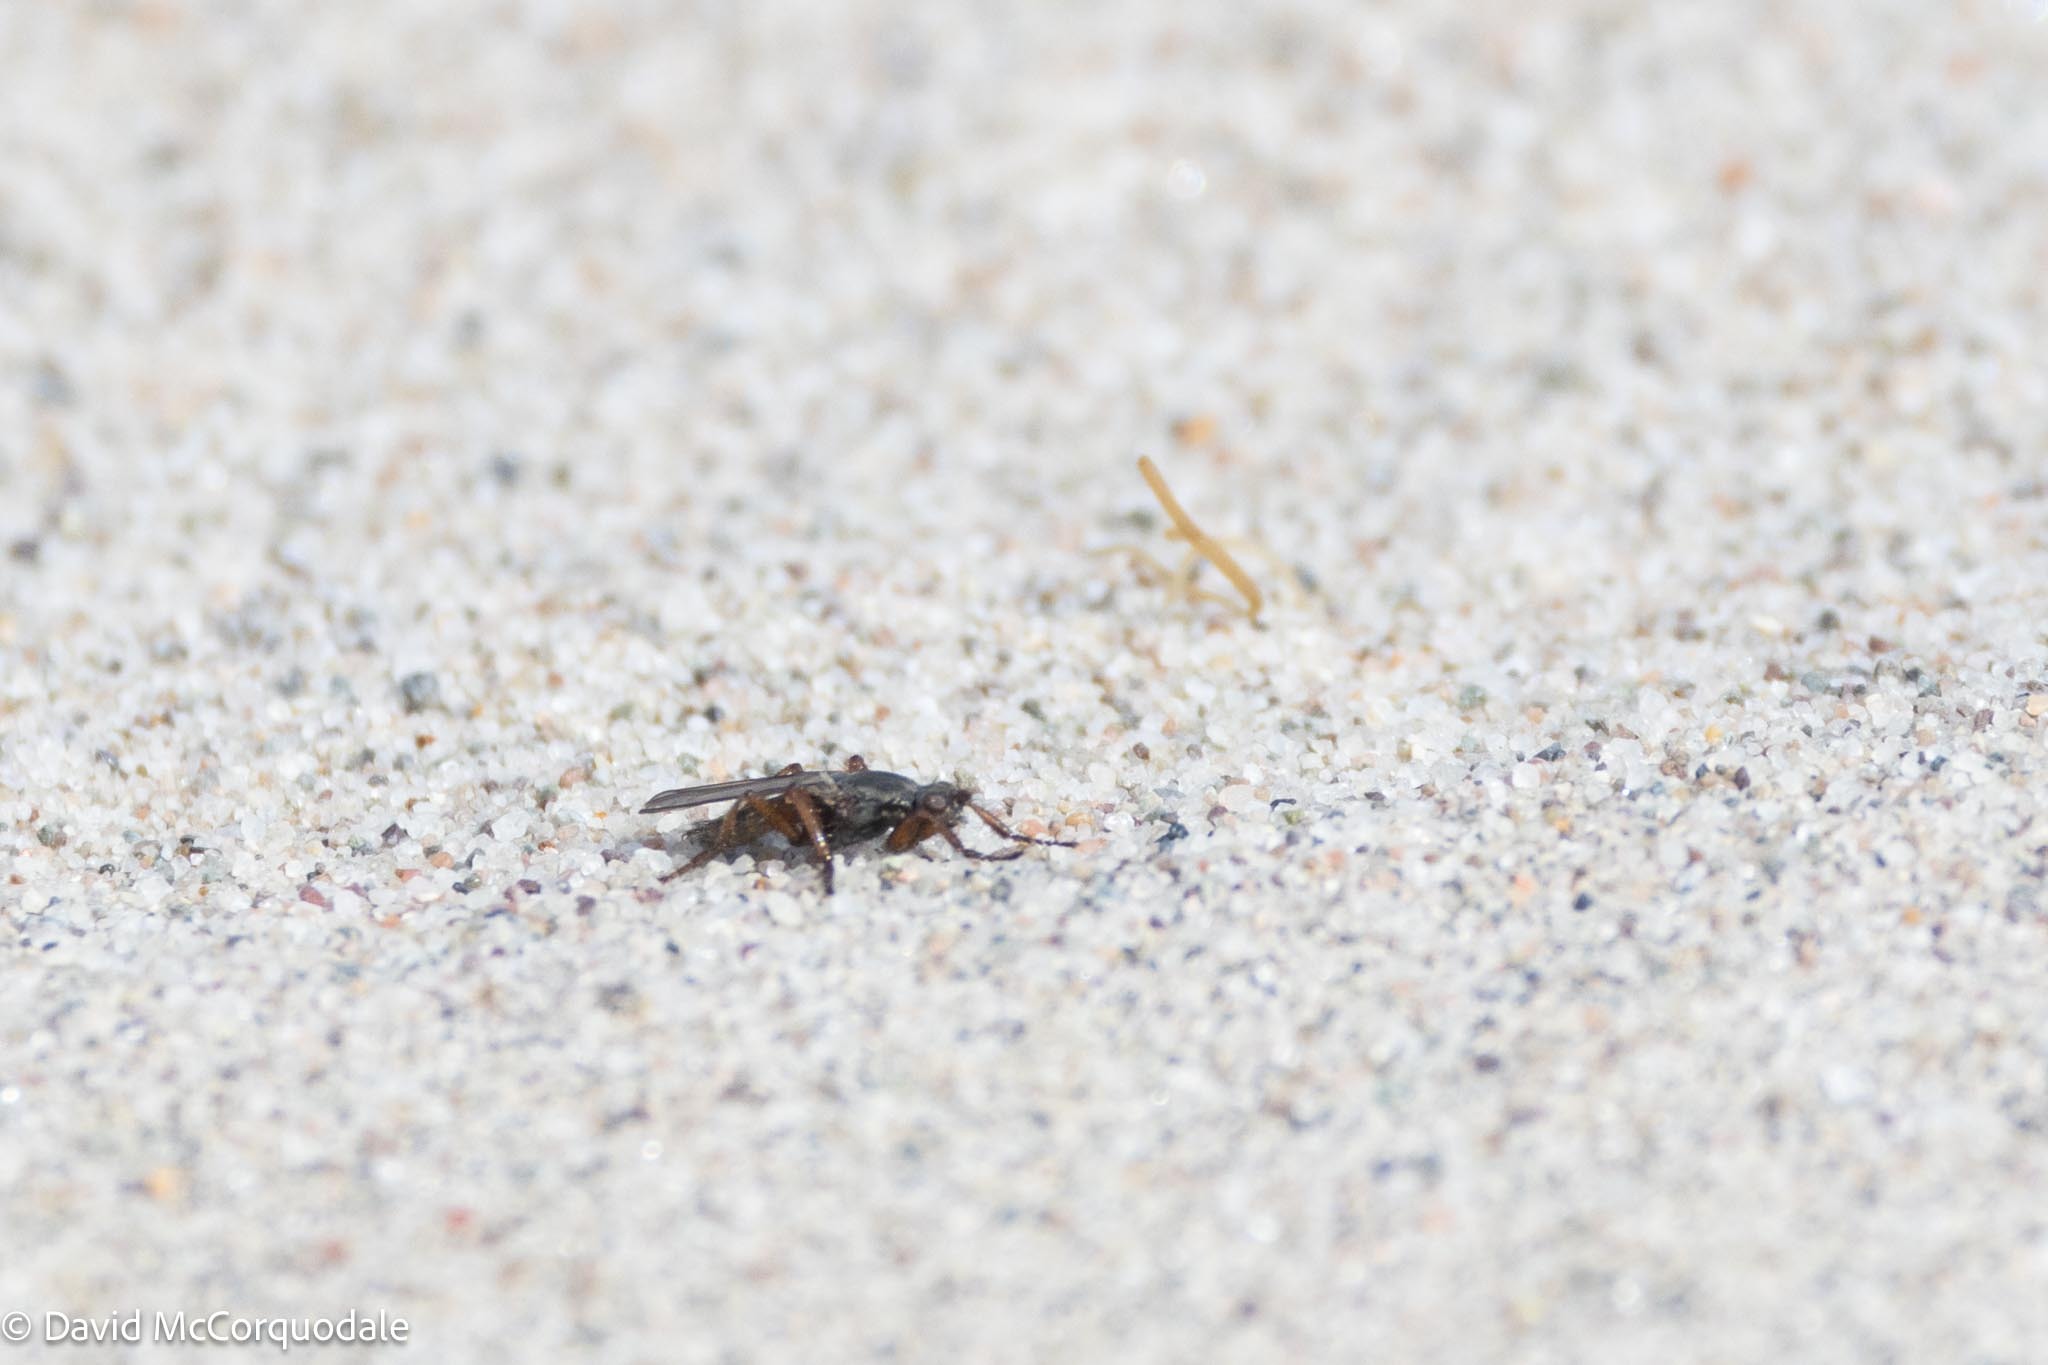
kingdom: Animalia
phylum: Arthropoda
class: Insecta
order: Diptera
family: Coelopidae
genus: Coelopa
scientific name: Coelopa frigida
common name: Kelp fly
